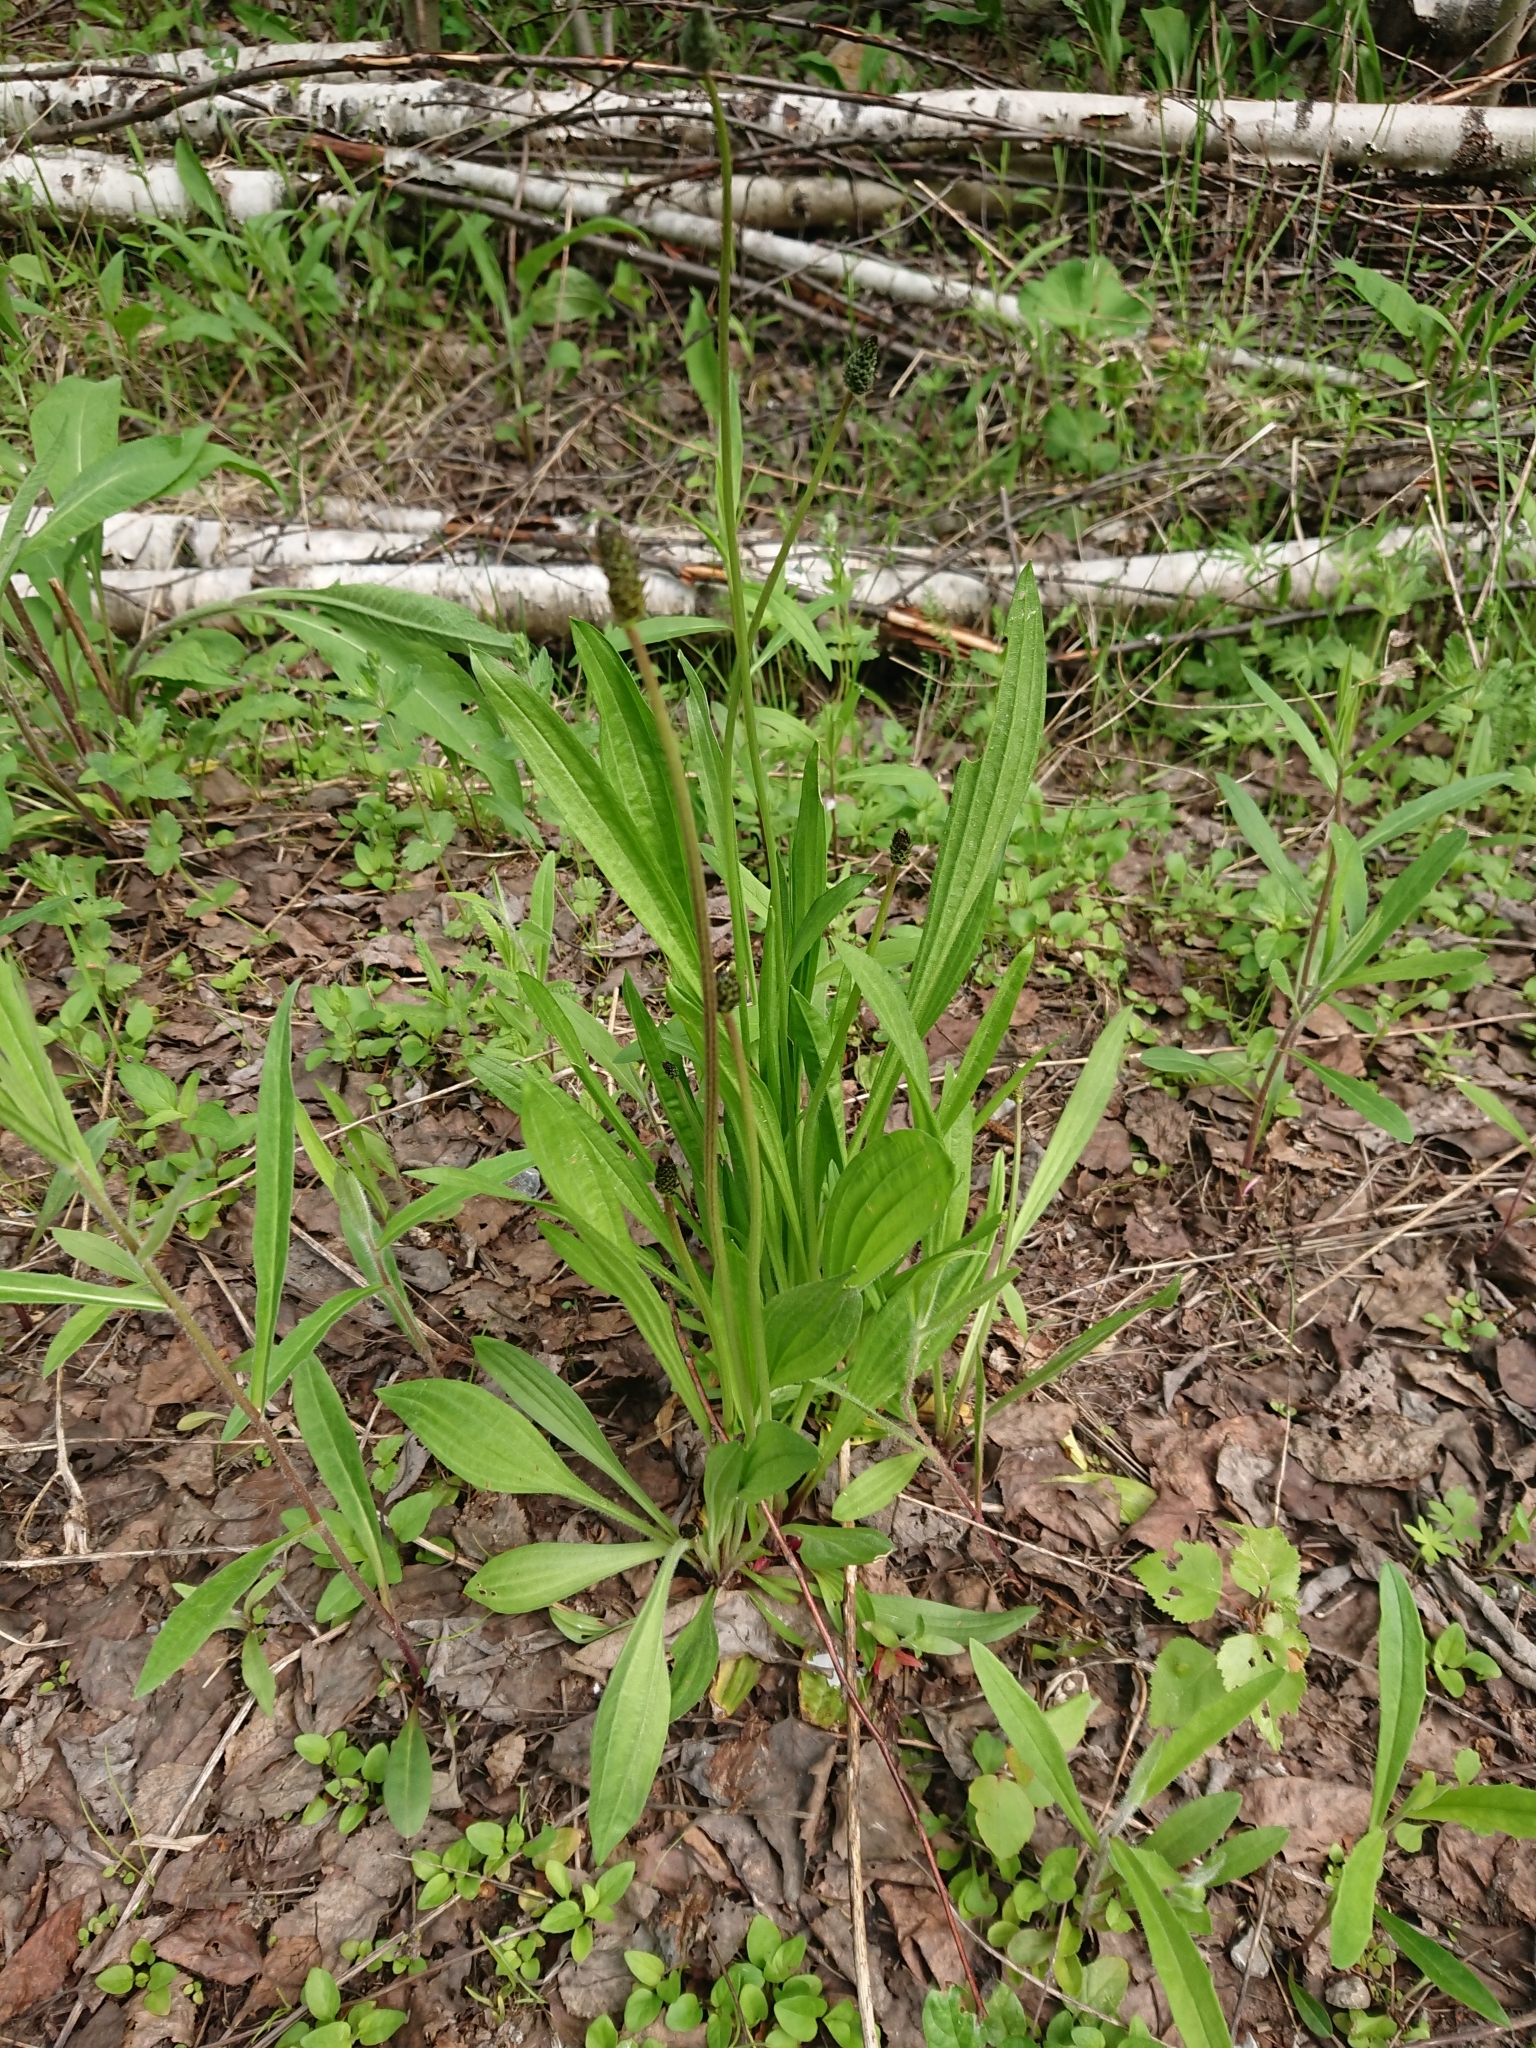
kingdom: Plantae
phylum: Tracheophyta
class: Magnoliopsida
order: Lamiales
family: Plantaginaceae
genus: Plantago
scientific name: Plantago lanceolata
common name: Ribwort plantain
